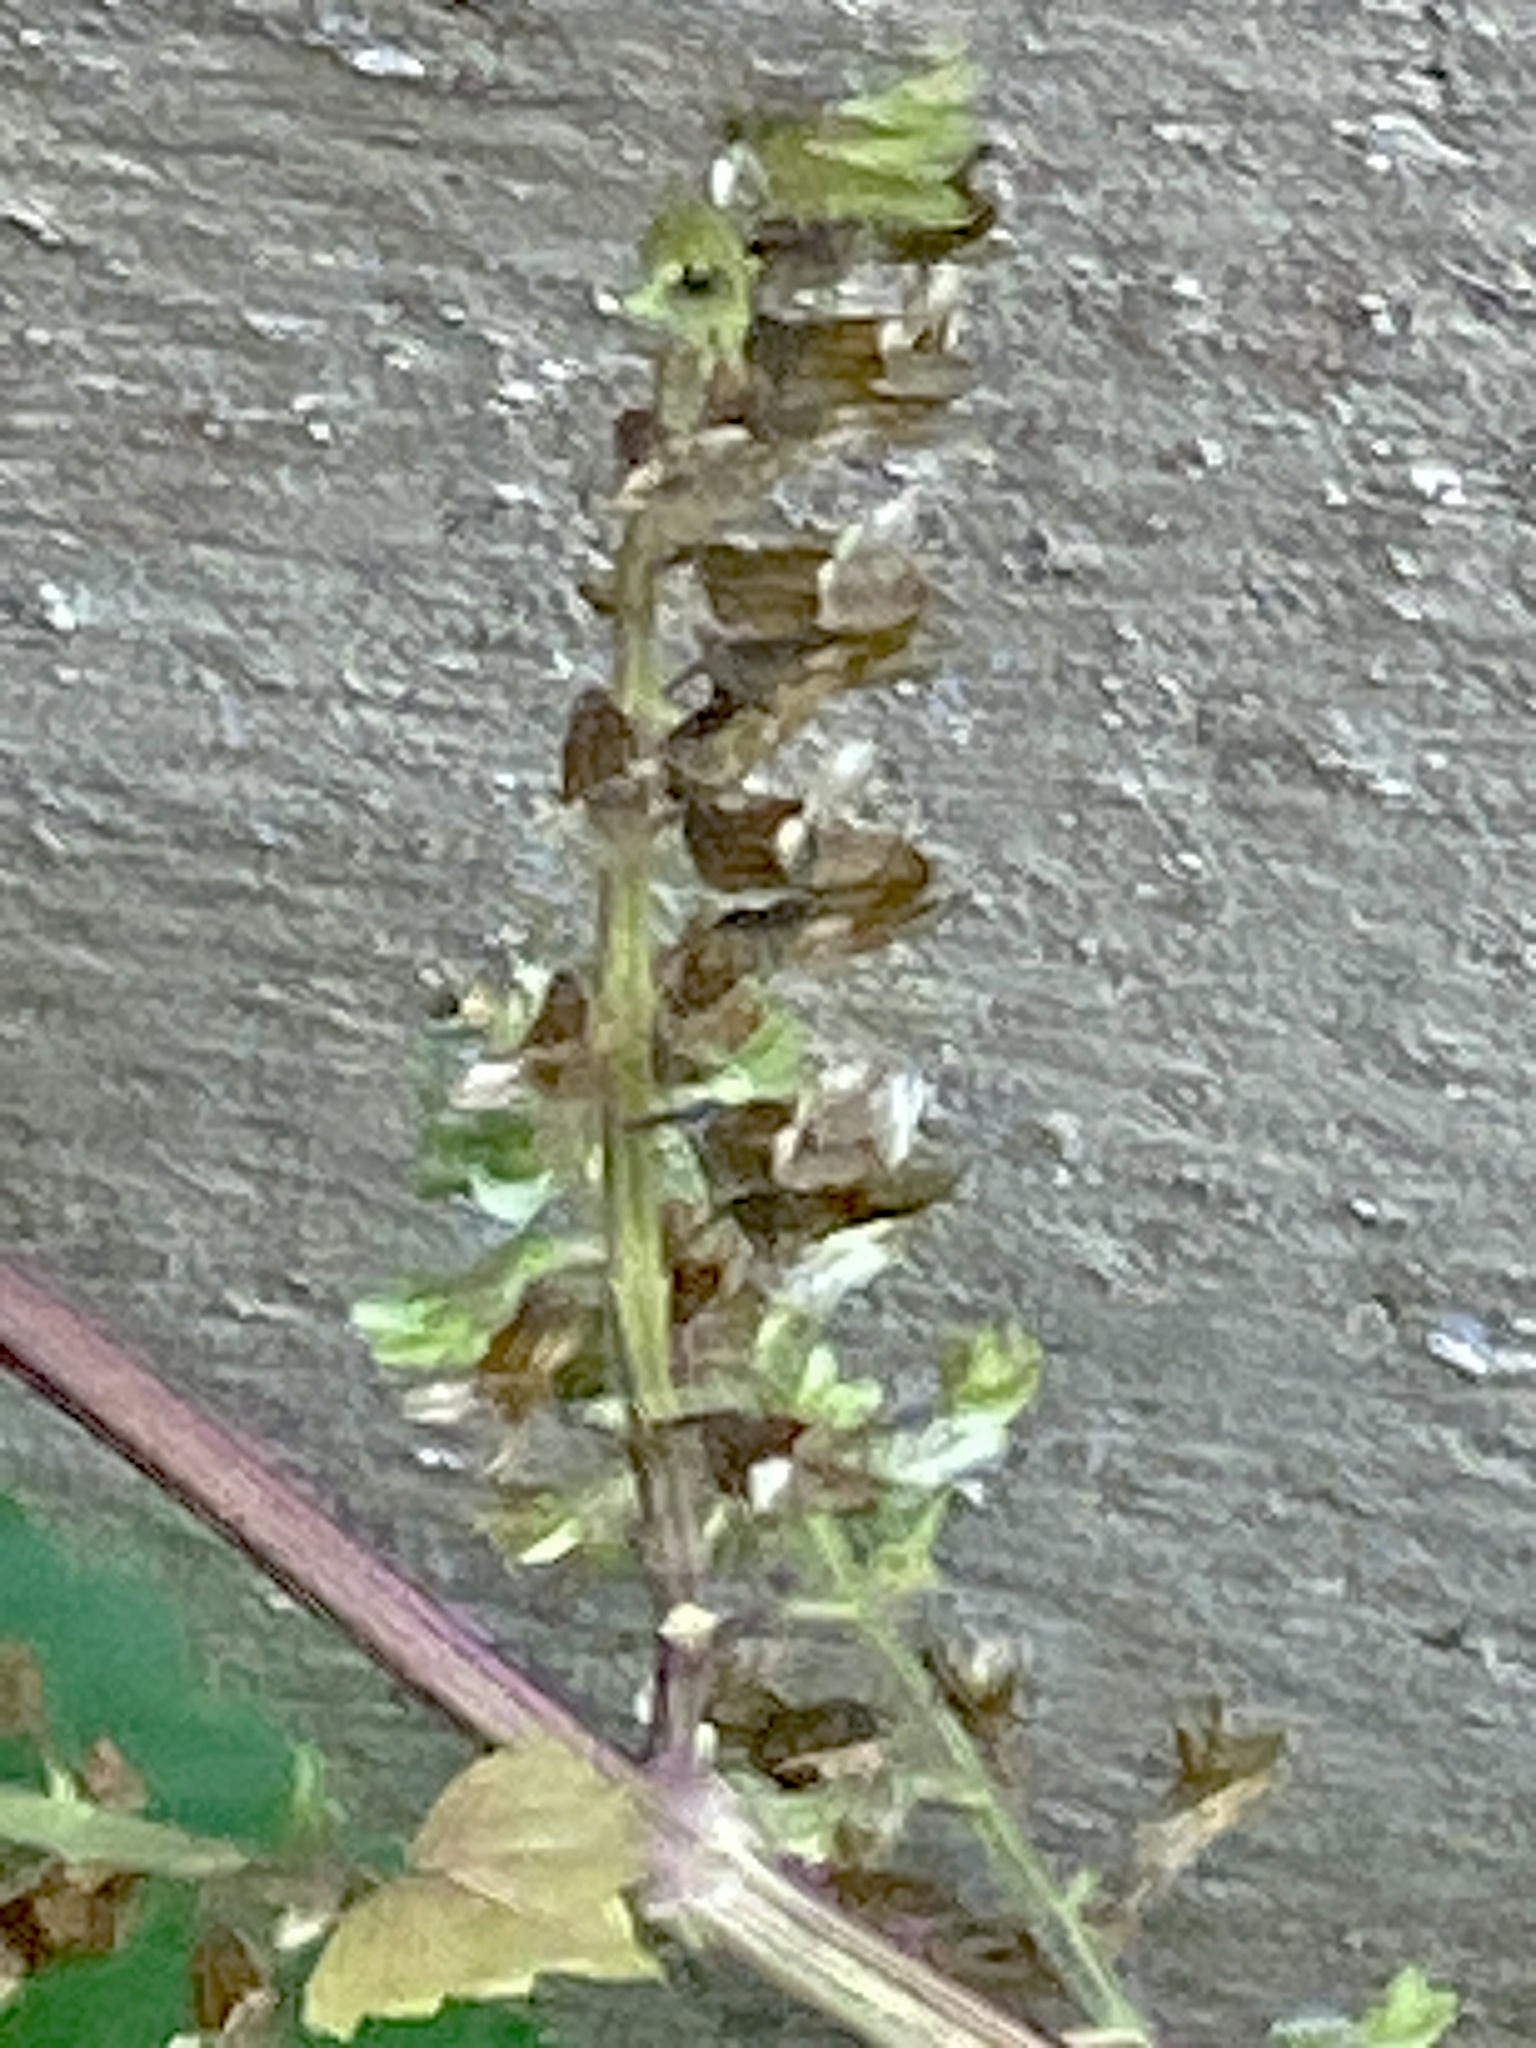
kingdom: Plantae
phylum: Tracheophyta
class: Magnoliopsida
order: Lamiales
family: Lamiaceae
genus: Perilla
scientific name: Perilla frutescens
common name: Perilla
